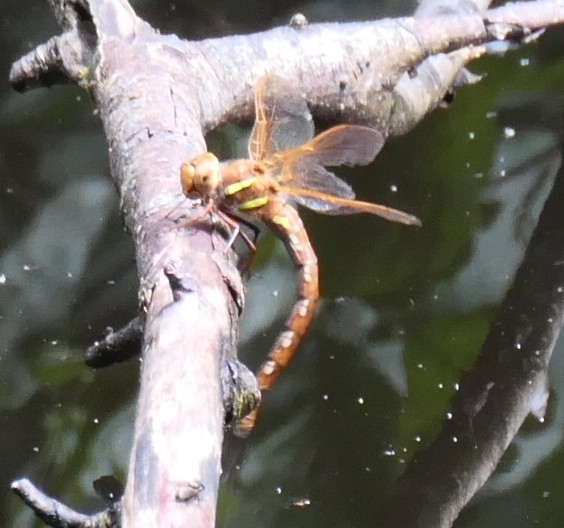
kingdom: Animalia
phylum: Arthropoda
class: Insecta
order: Odonata
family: Aeshnidae
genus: Aeshna
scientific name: Aeshna grandis
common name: Brown hawker
